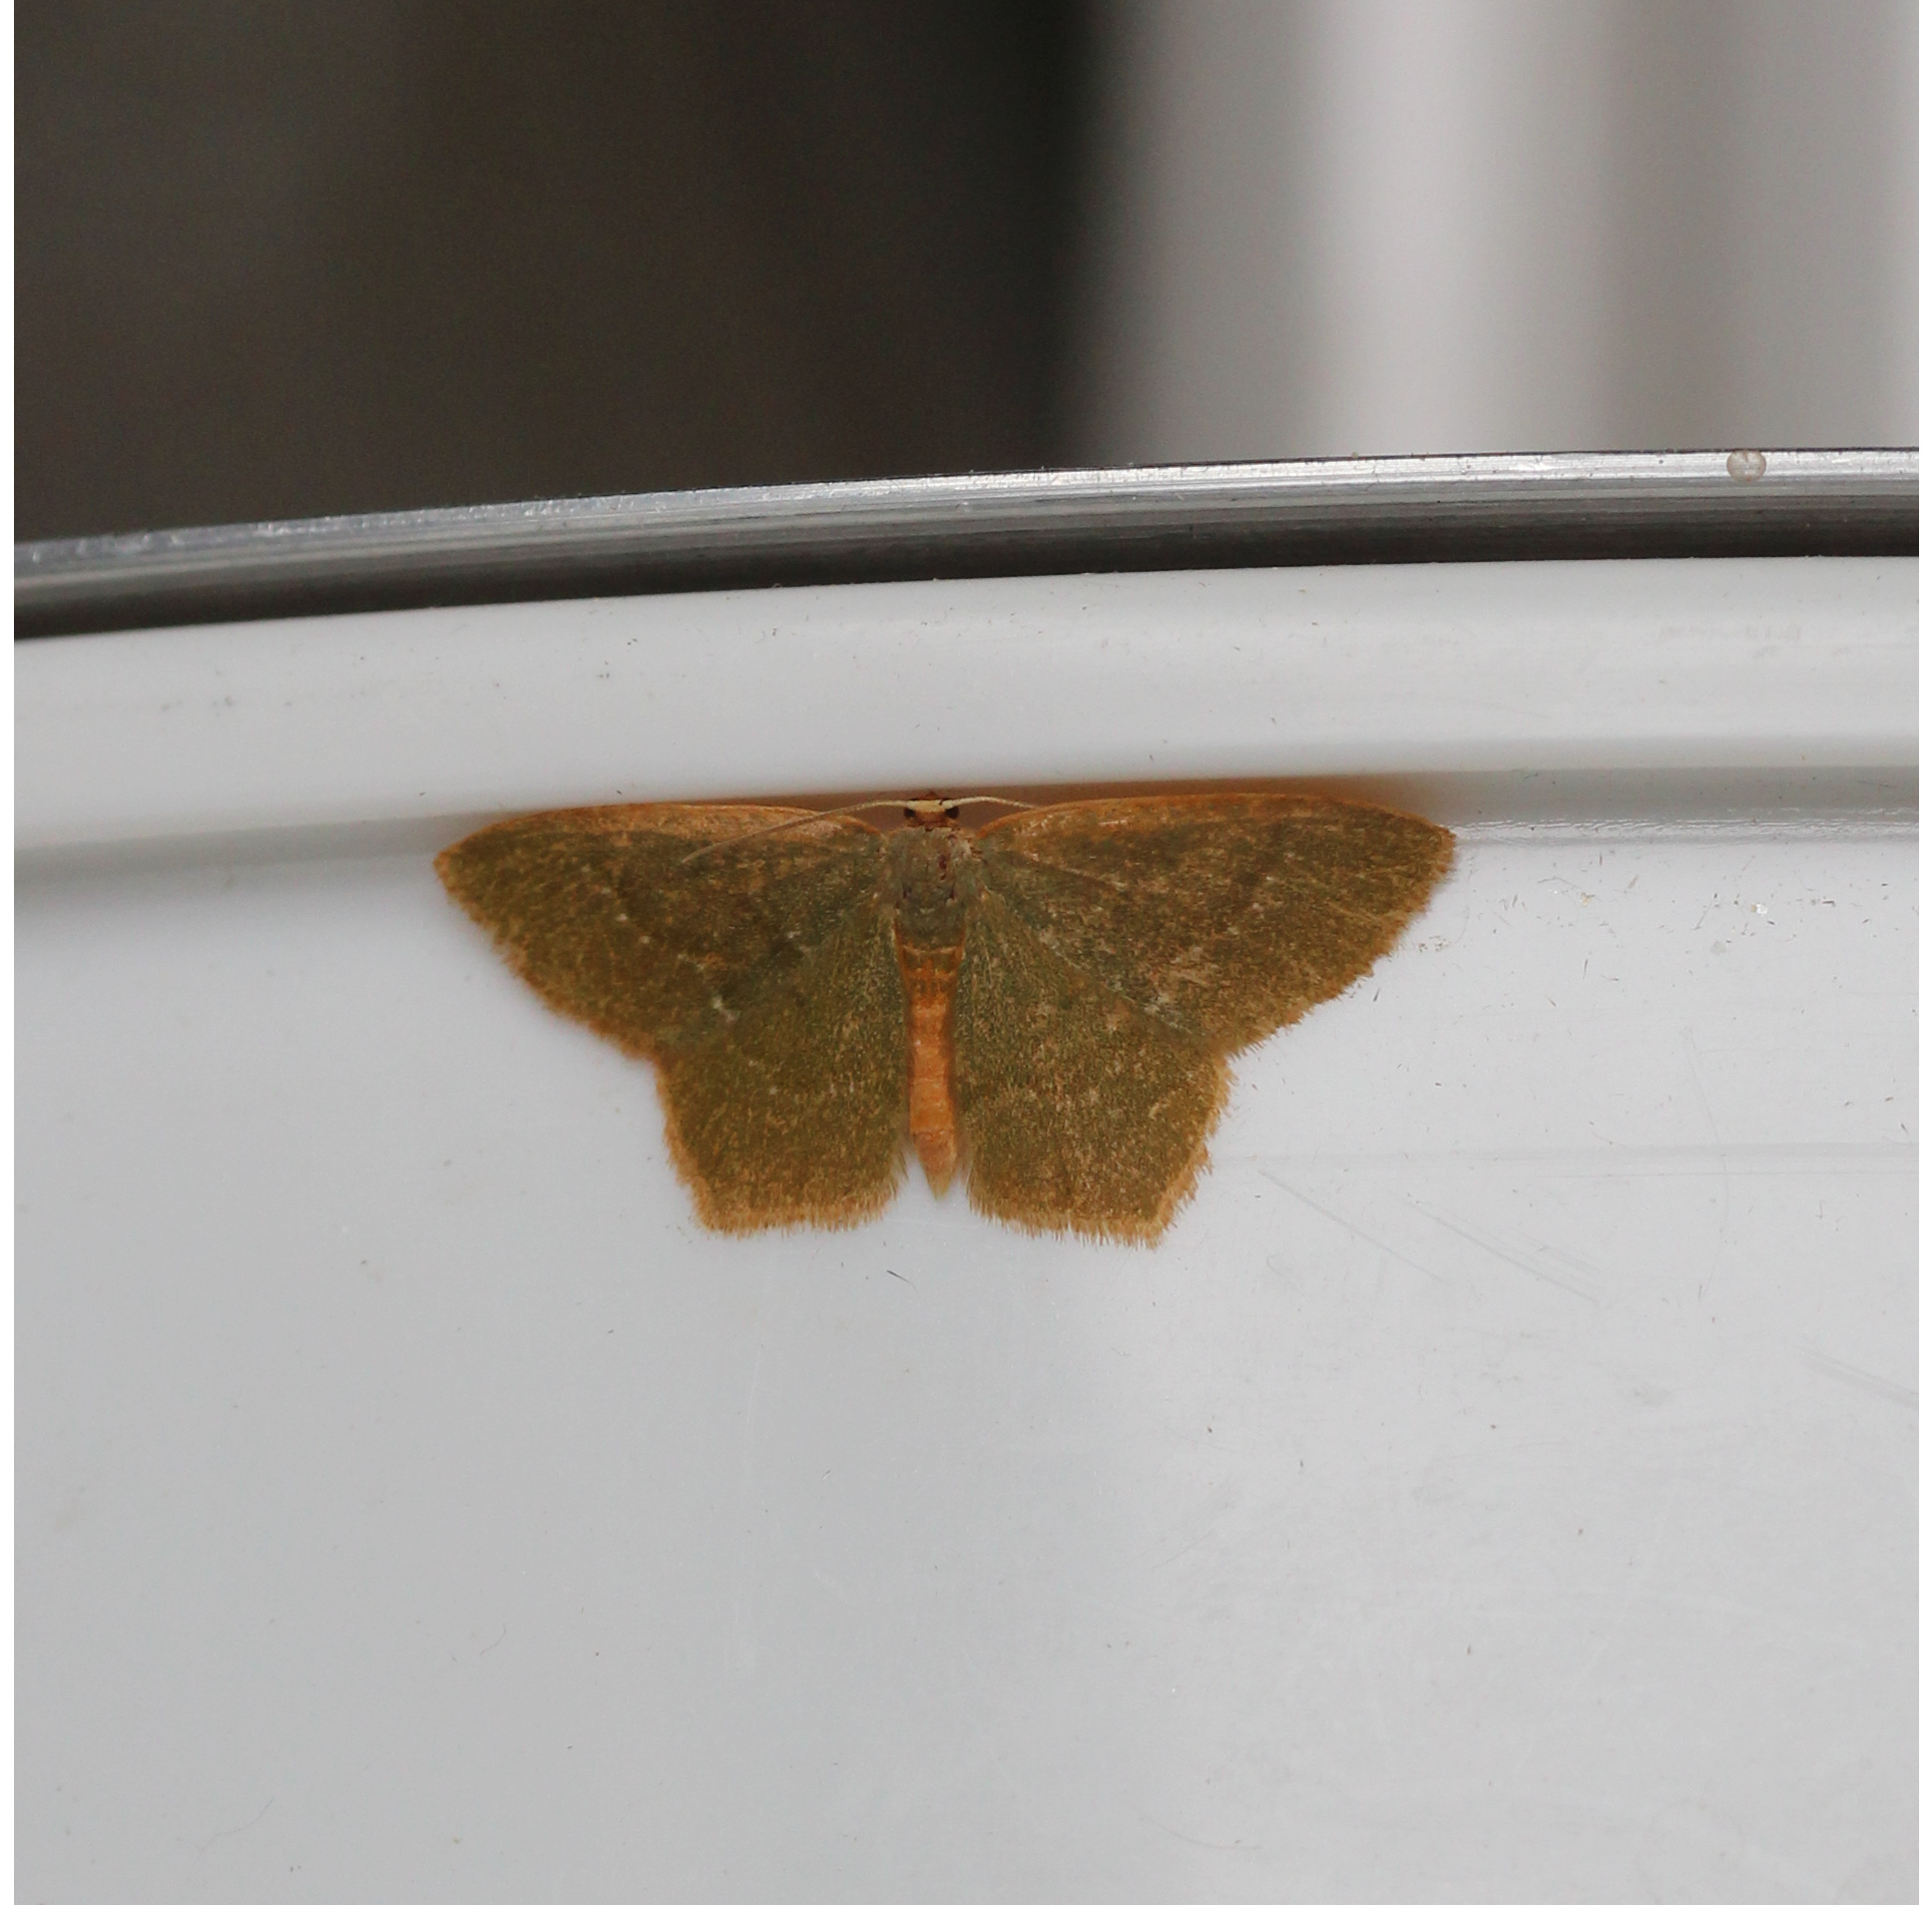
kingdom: Animalia
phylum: Arthropoda
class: Insecta
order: Lepidoptera
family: Geometridae
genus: Thalera
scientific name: Thalera pistasciaria
